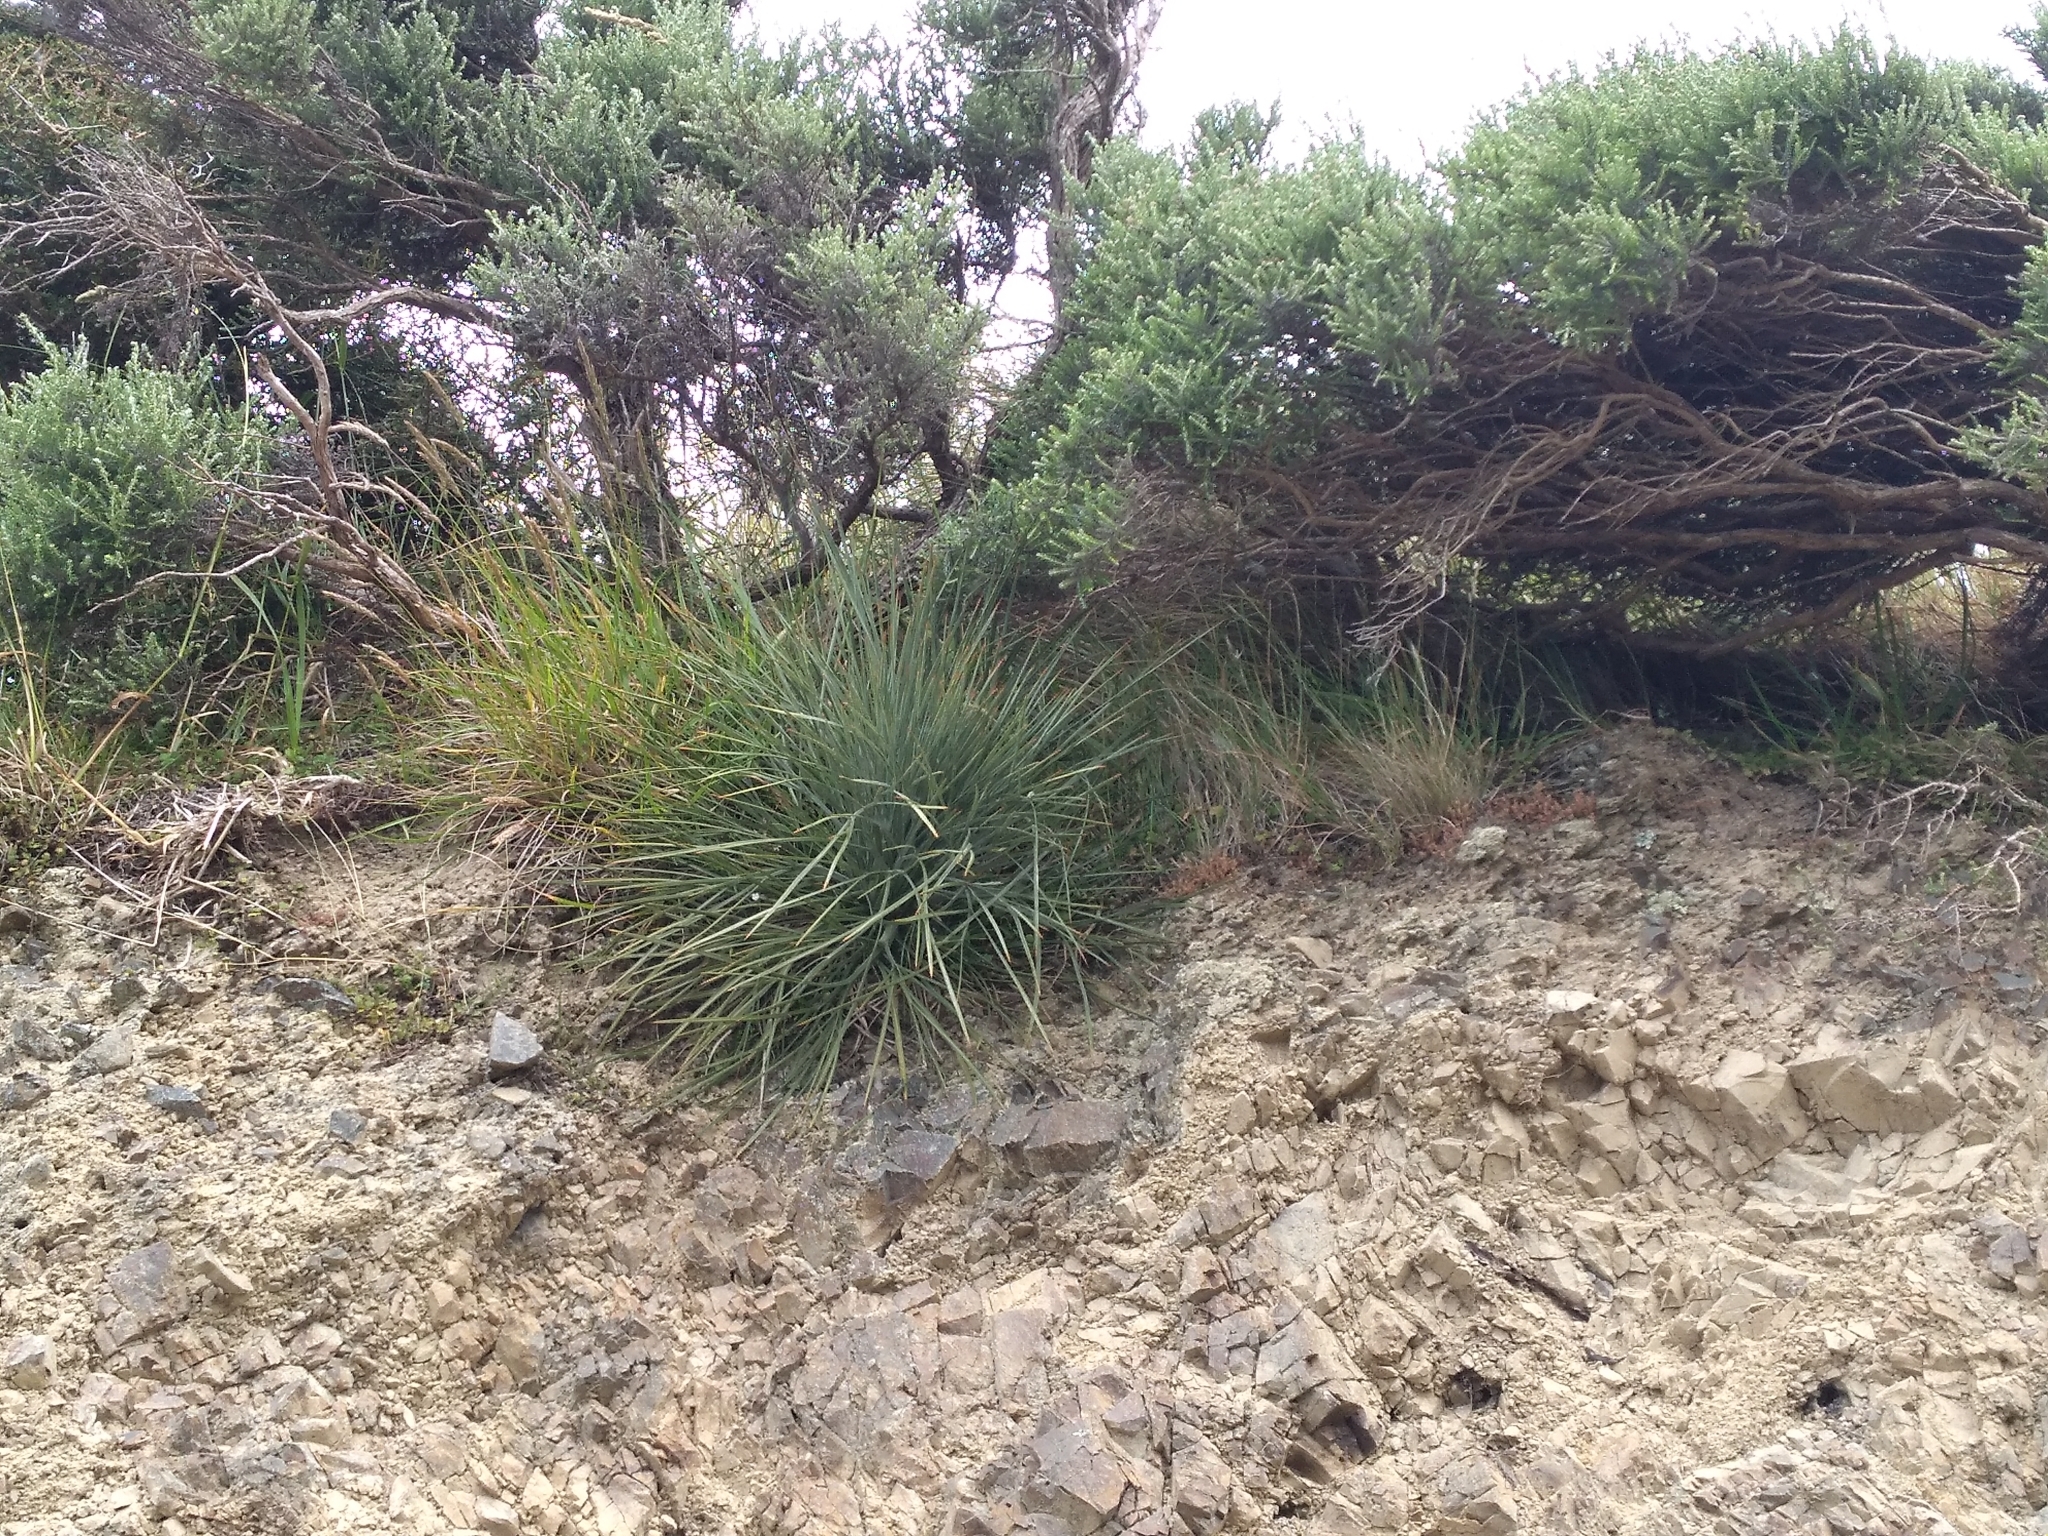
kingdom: Plantae
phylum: Tracheophyta
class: Magnoliopsida
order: Apiales
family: Apiaceae
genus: Aciphylla
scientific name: Aciphylla squarrosa
